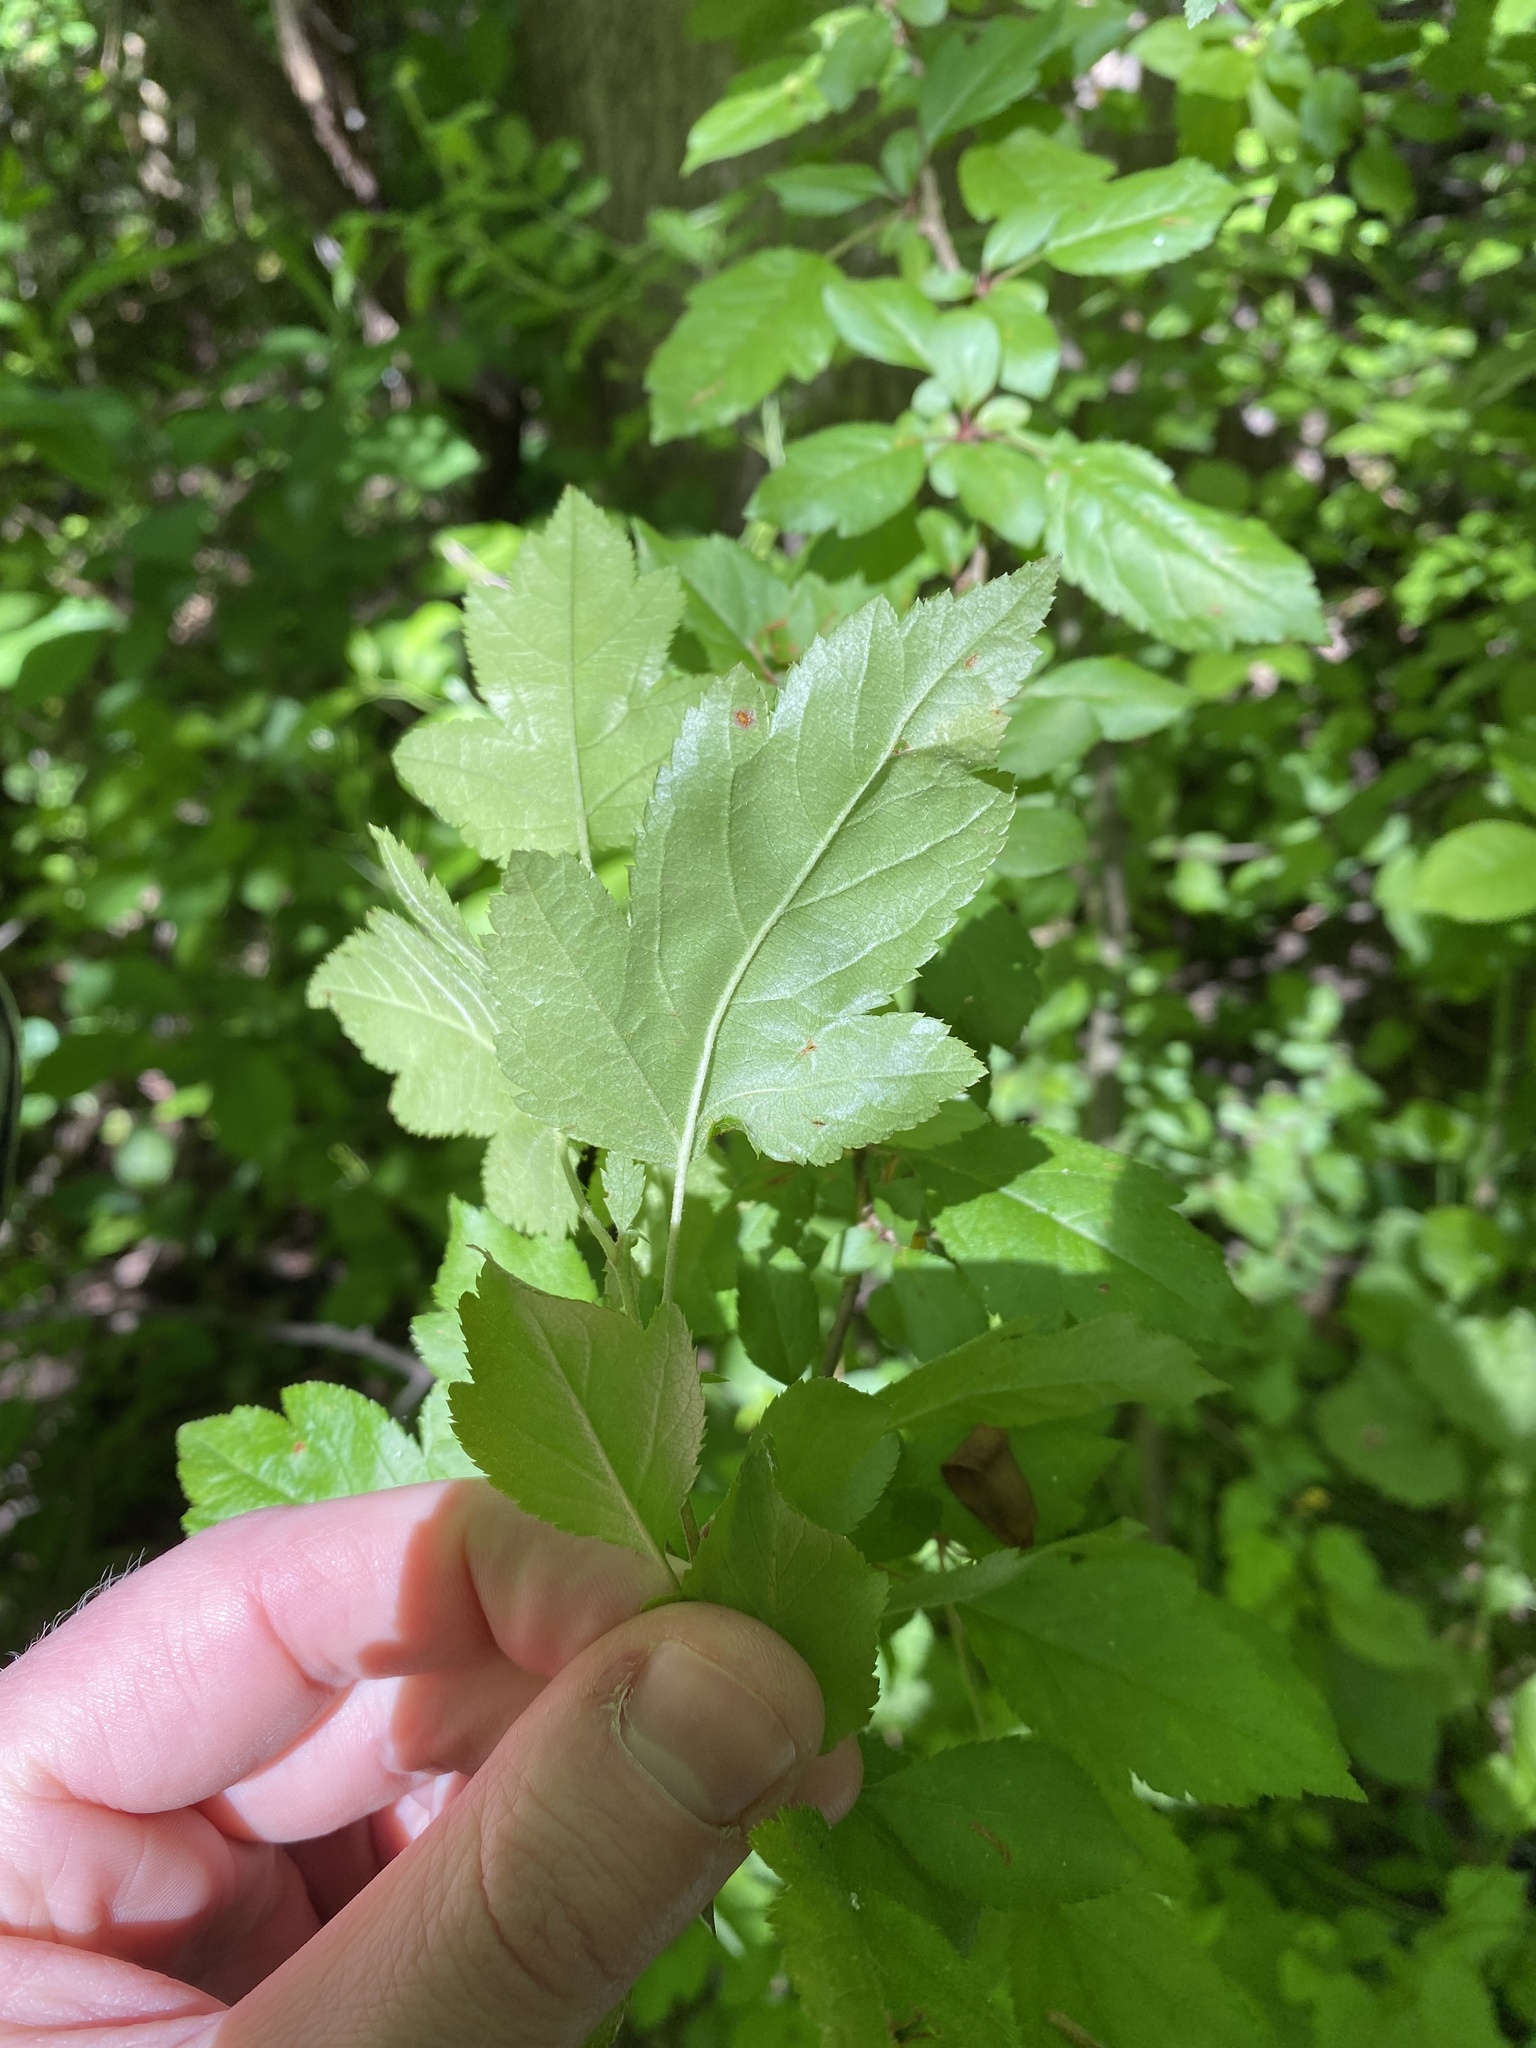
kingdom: Plantae
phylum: Tracheophyta
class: Magnoliopsida
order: Malvales
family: Malvaceae
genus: Hibiscus
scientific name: Hibiscus syriacus
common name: Syrian ketmia
